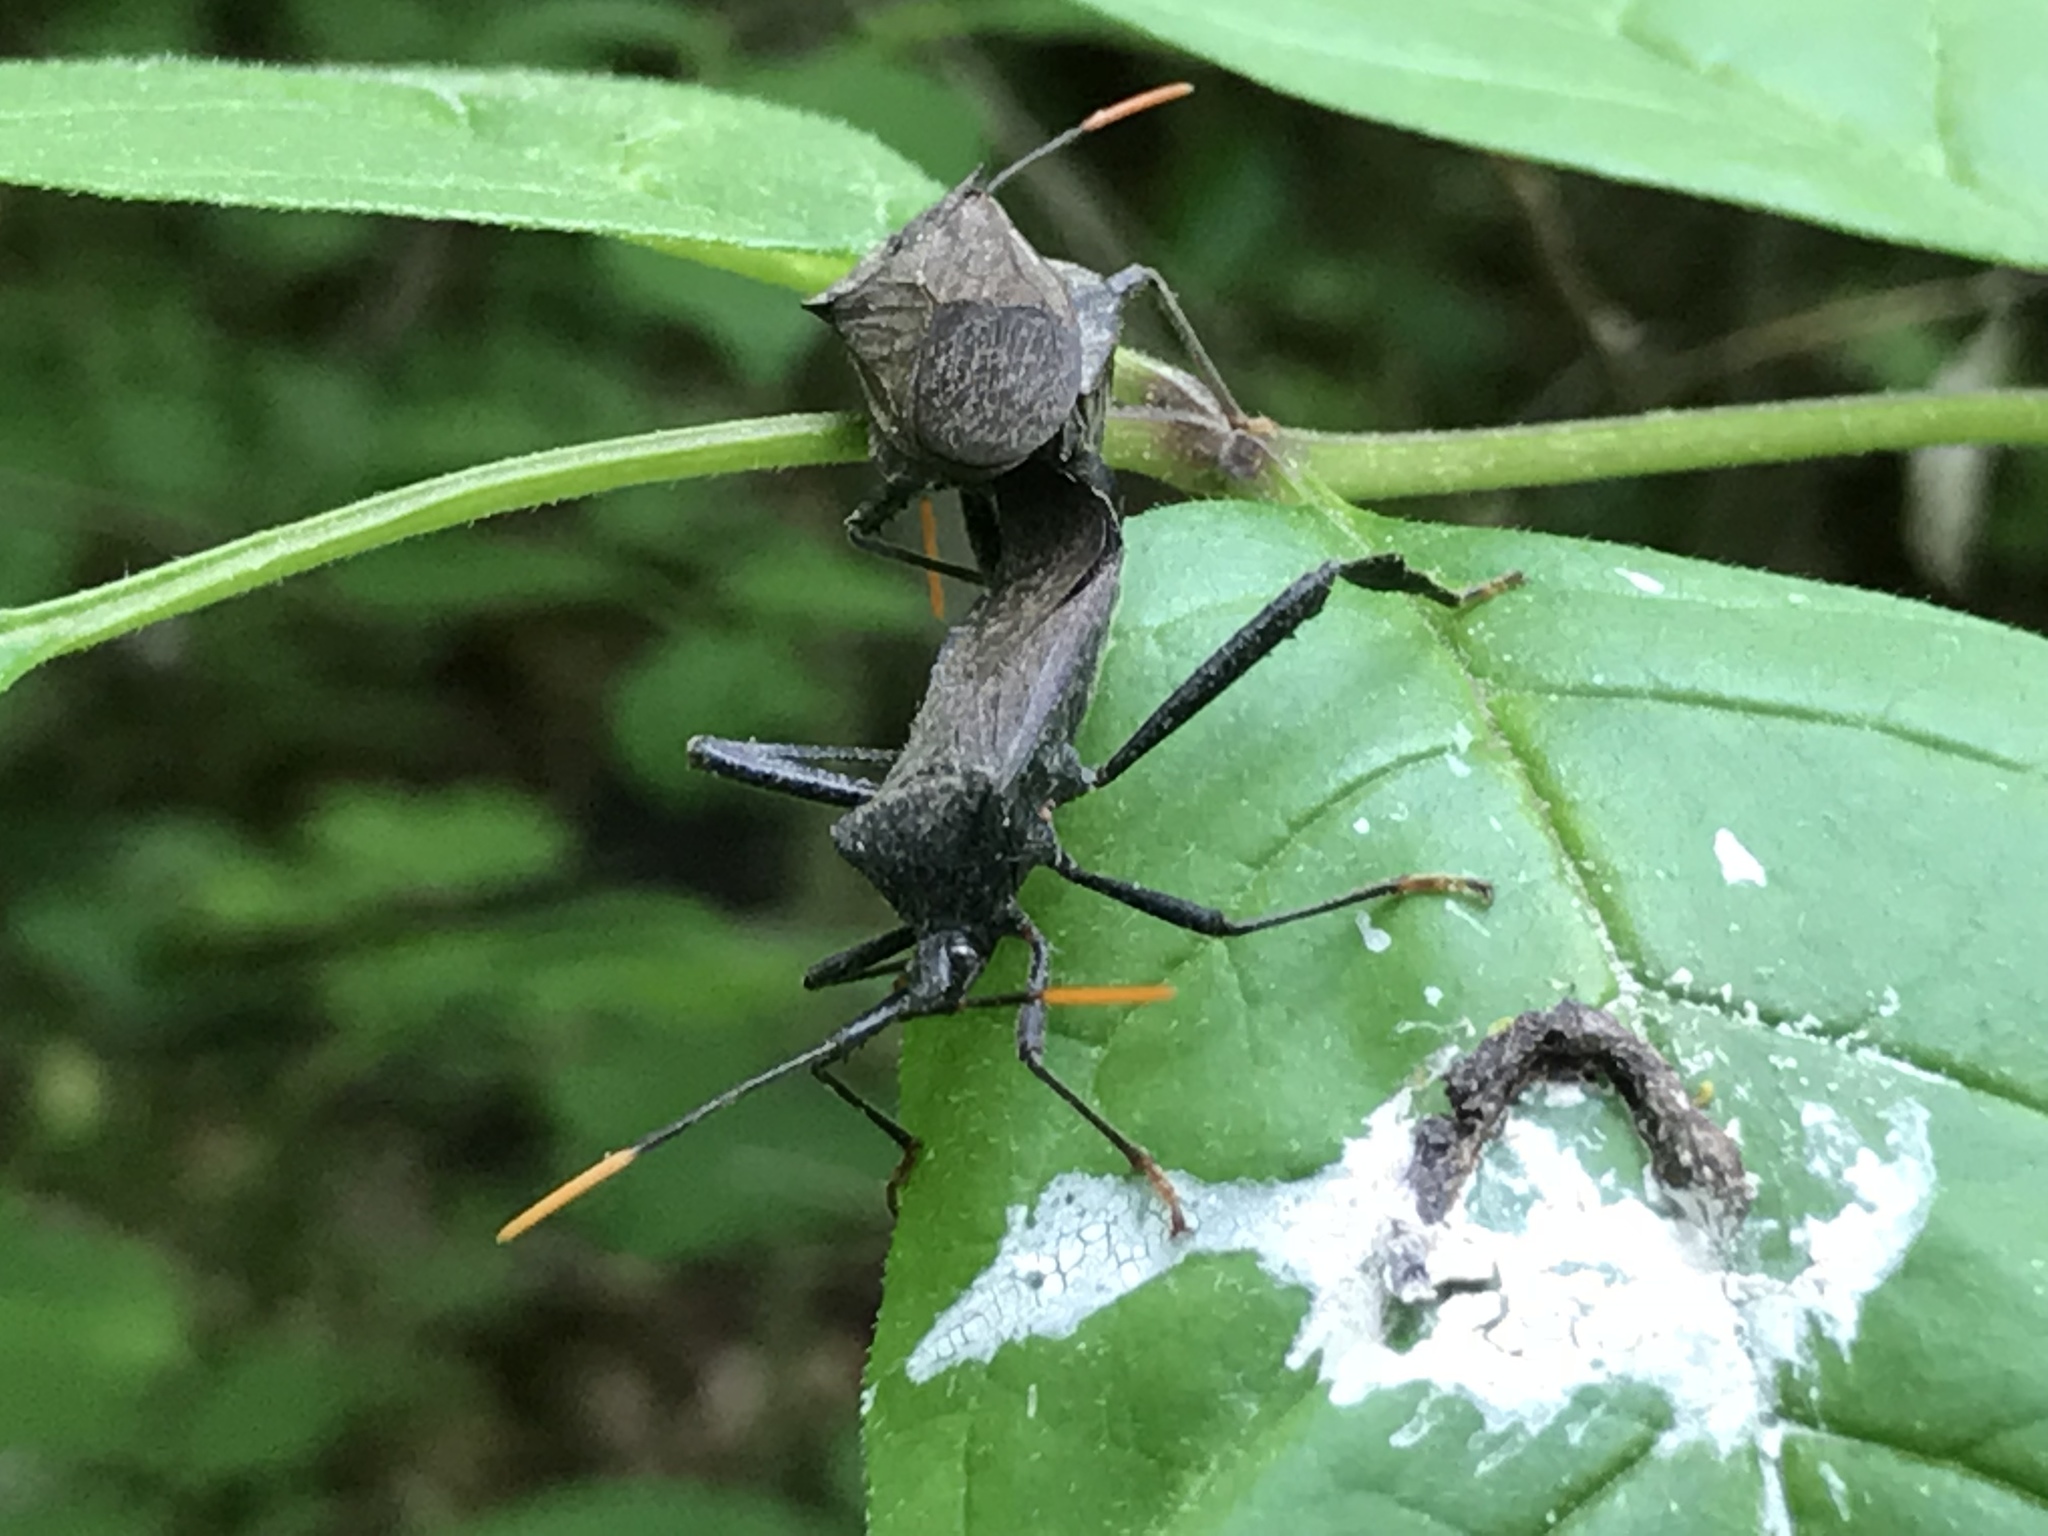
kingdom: Animalia
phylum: Arthropoda
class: Insecta
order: Hemiptera
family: Coreidae
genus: Acanthocephala
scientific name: Acanthocephala terminalis
